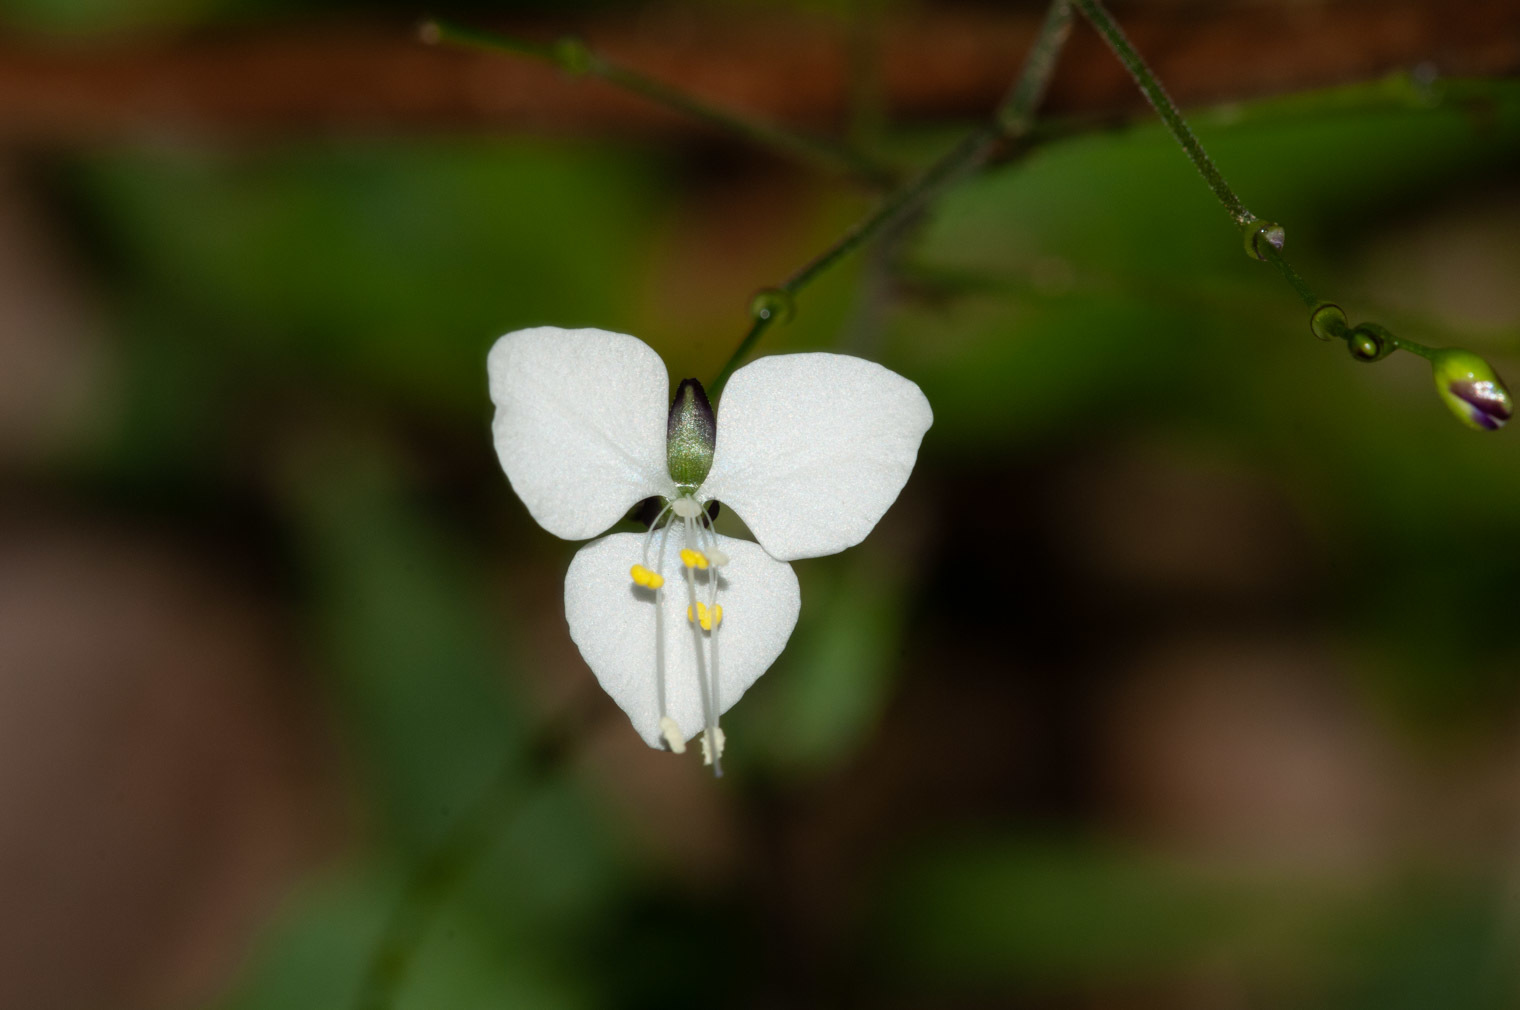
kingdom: Plantae
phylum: Tracheophyta
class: Liliopsida
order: Commelinales
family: Commelinaceae
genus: Aneilema
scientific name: Aneilema acuminatum
